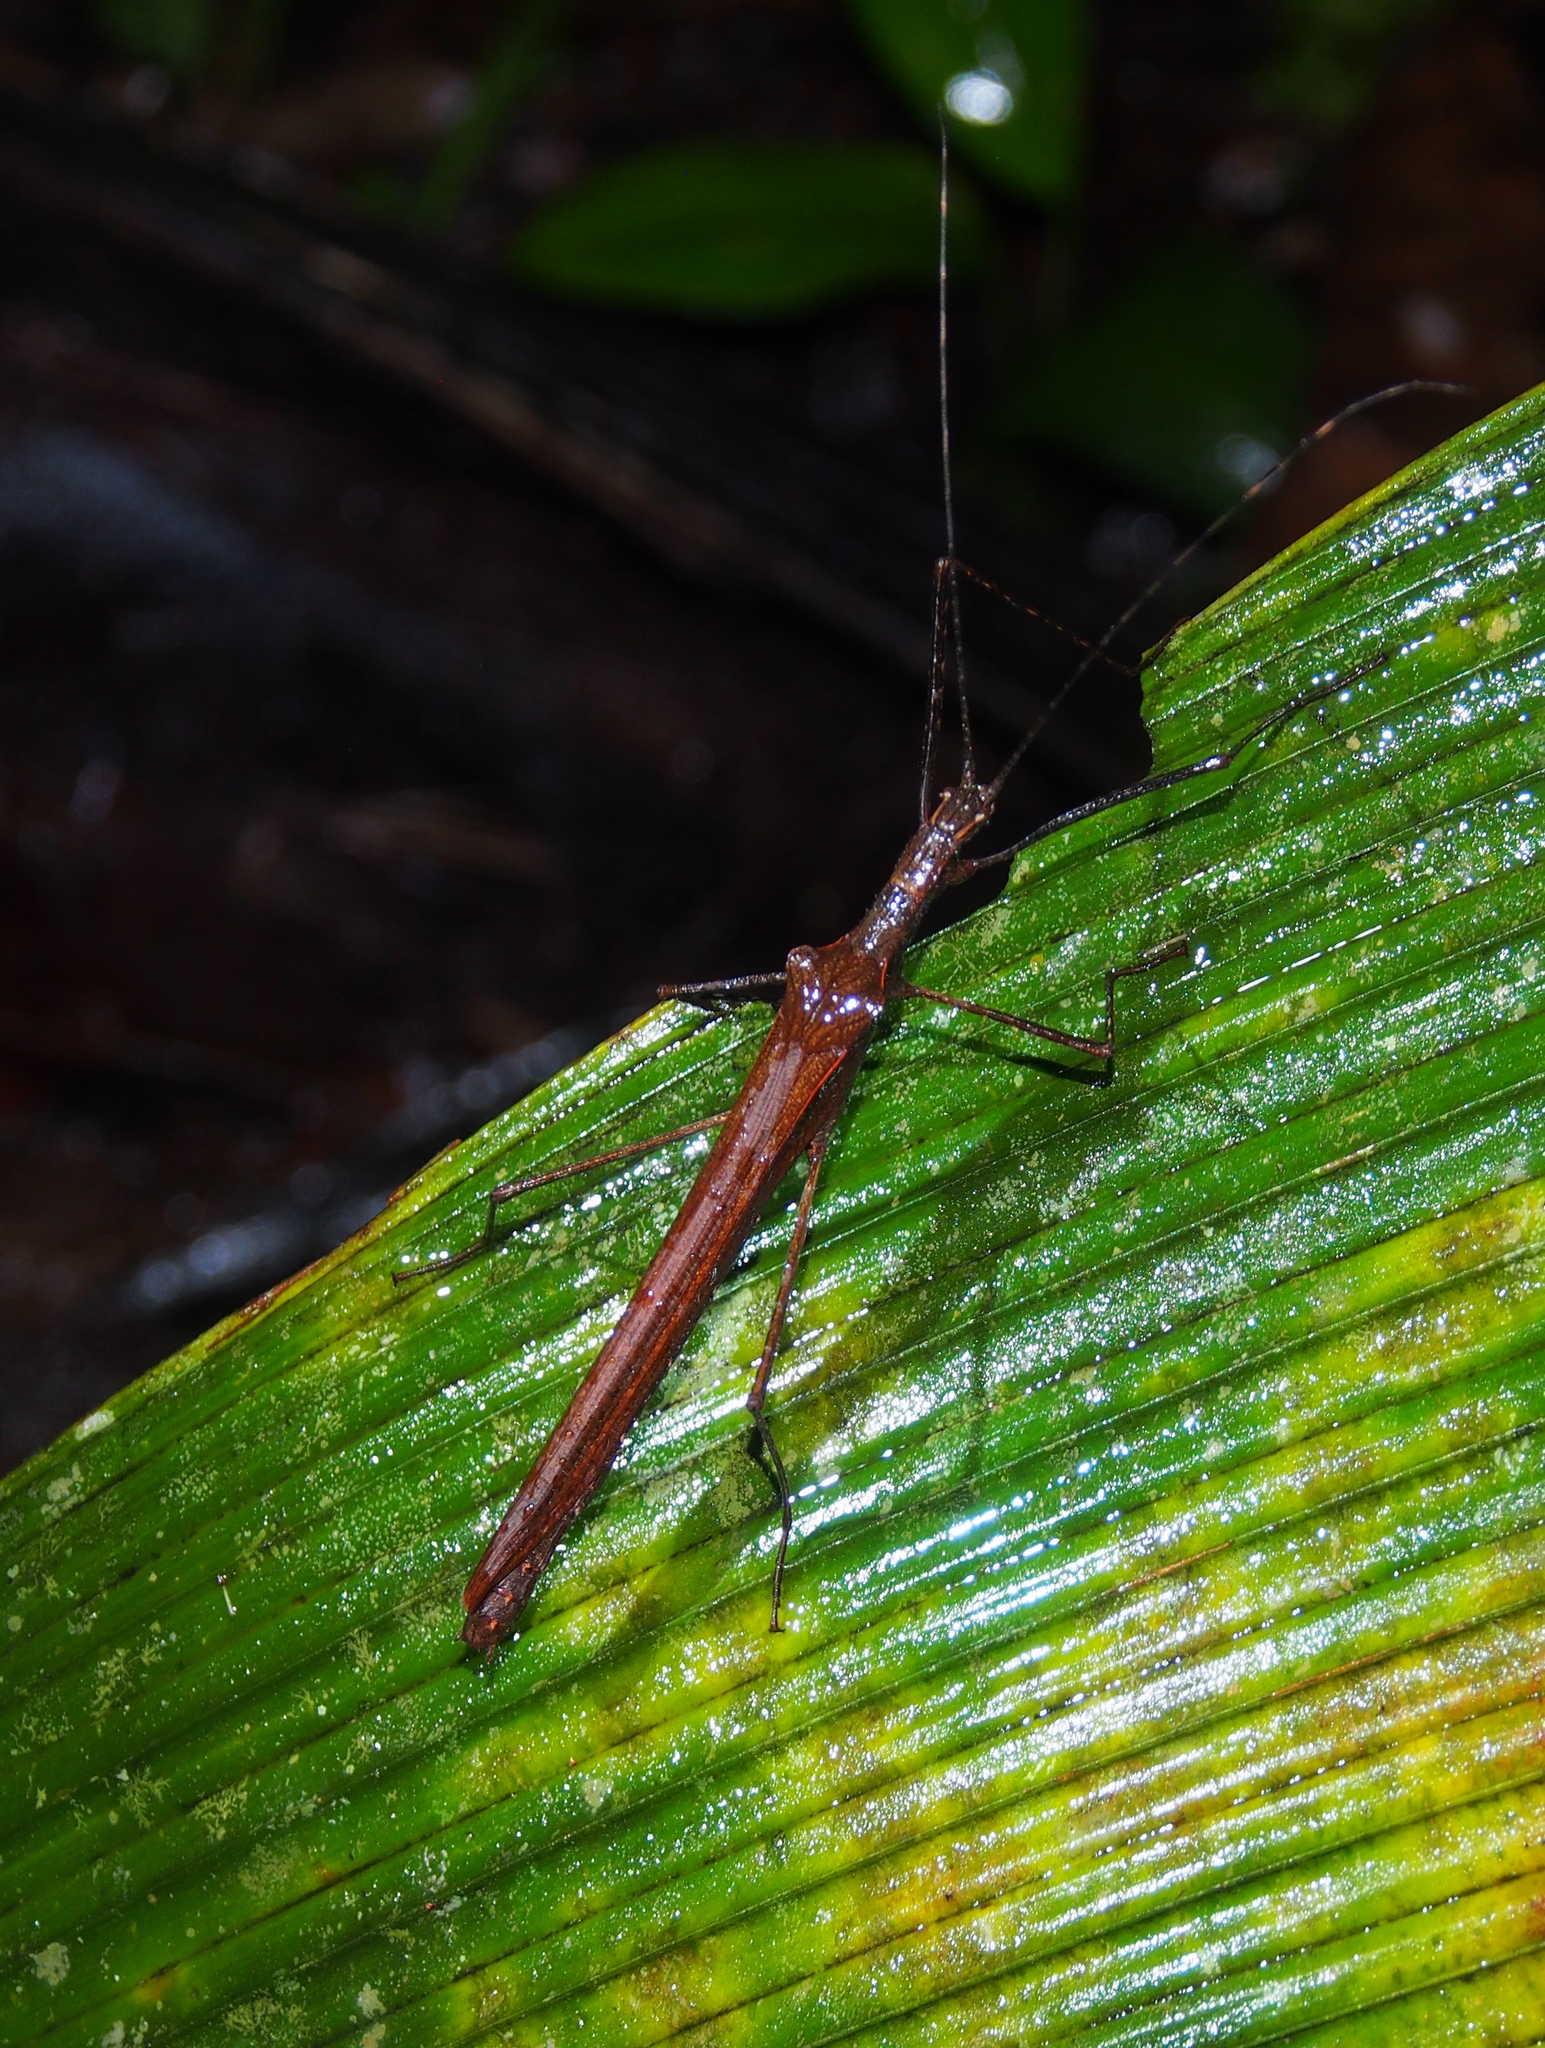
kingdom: Animalia
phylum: Arthropoda
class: Insecta
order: Phasmida
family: Pseudophasmatidae
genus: Pseudophasma
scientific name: Pseudophasma unicolor
